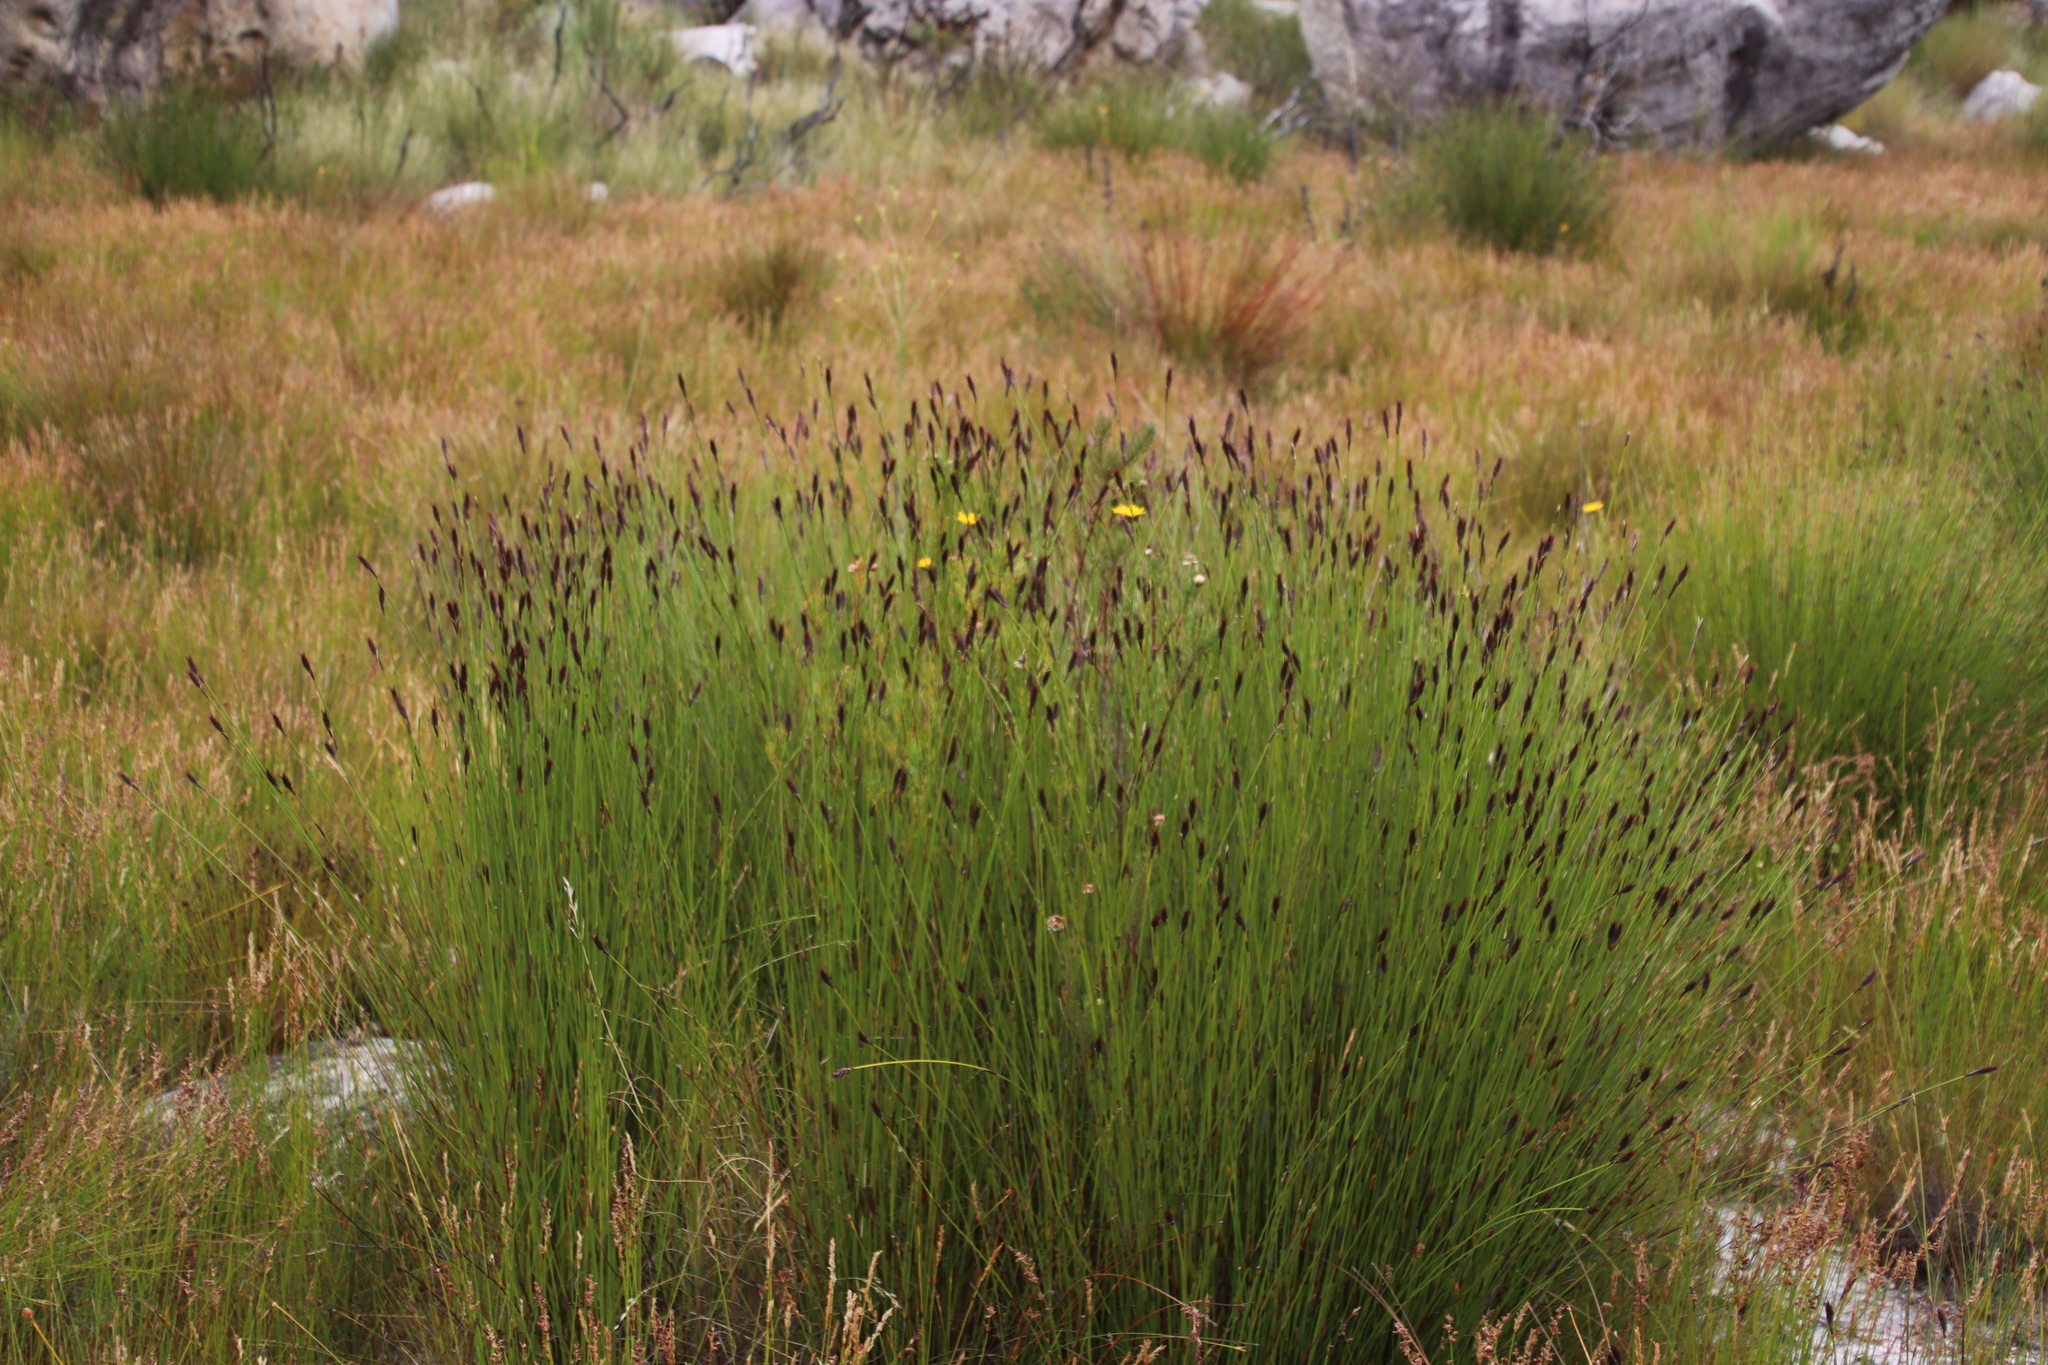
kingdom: Plantae
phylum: Tracheophyta
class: Liliopsida
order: Poales
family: Restionaceae
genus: Hypodiscus
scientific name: Hypodiscus aristatus
